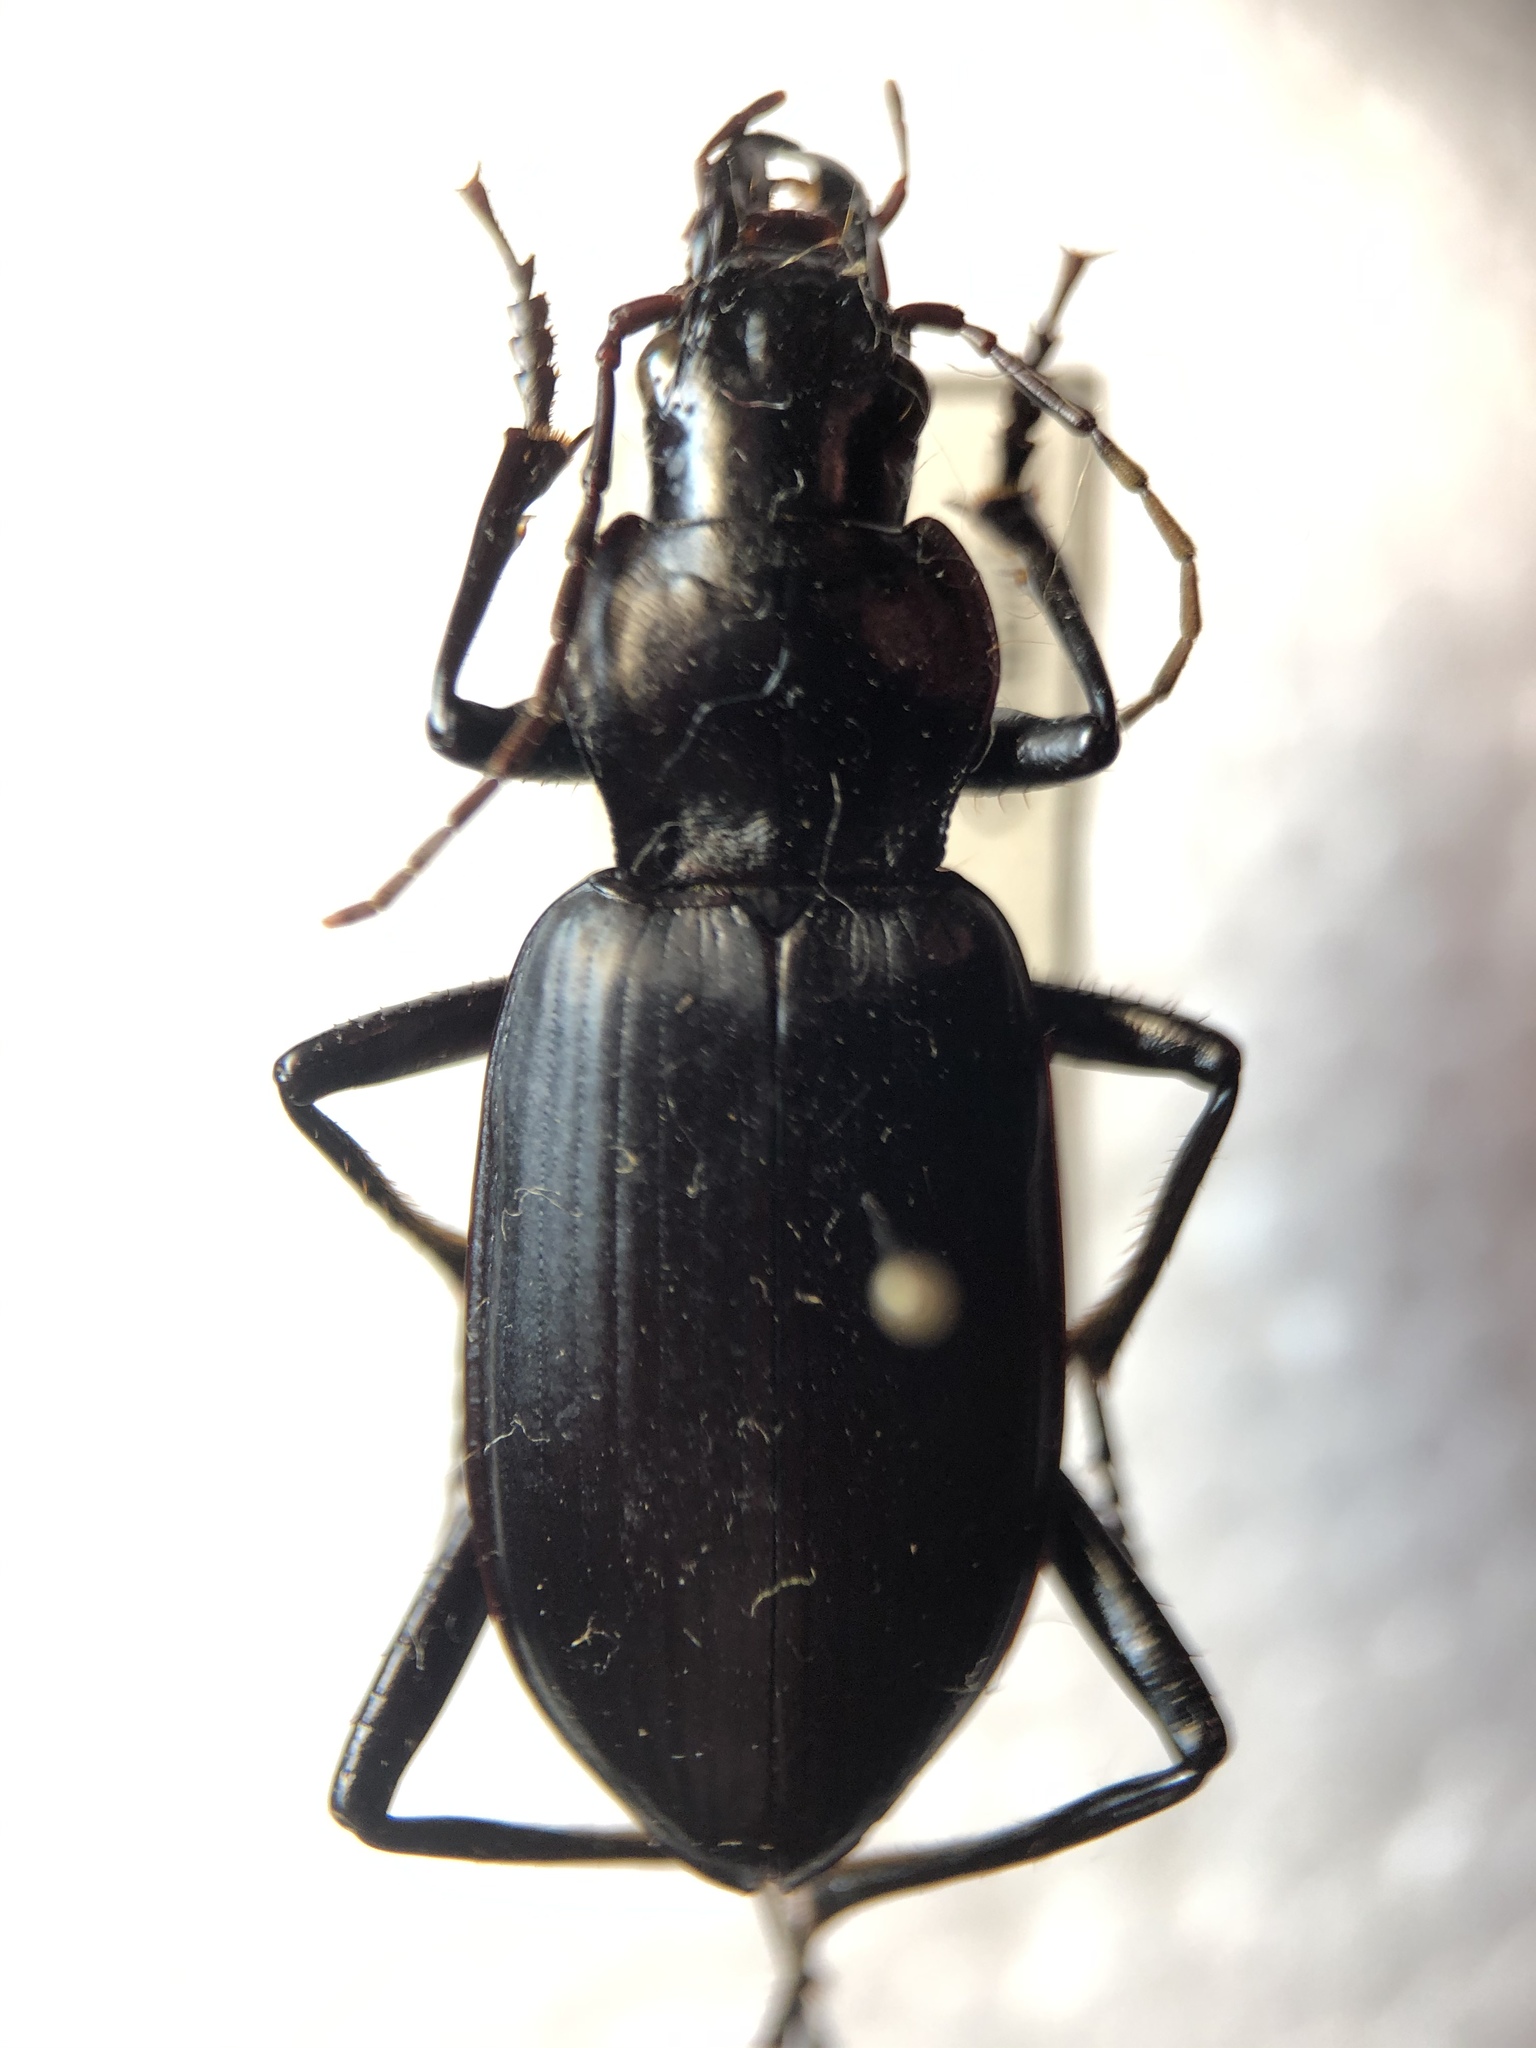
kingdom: Animalia
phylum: Arthropoda
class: Insecta
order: Coleoptera
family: Carabidae
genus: Sphodrus
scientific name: Sphodrus leucophthalmus
